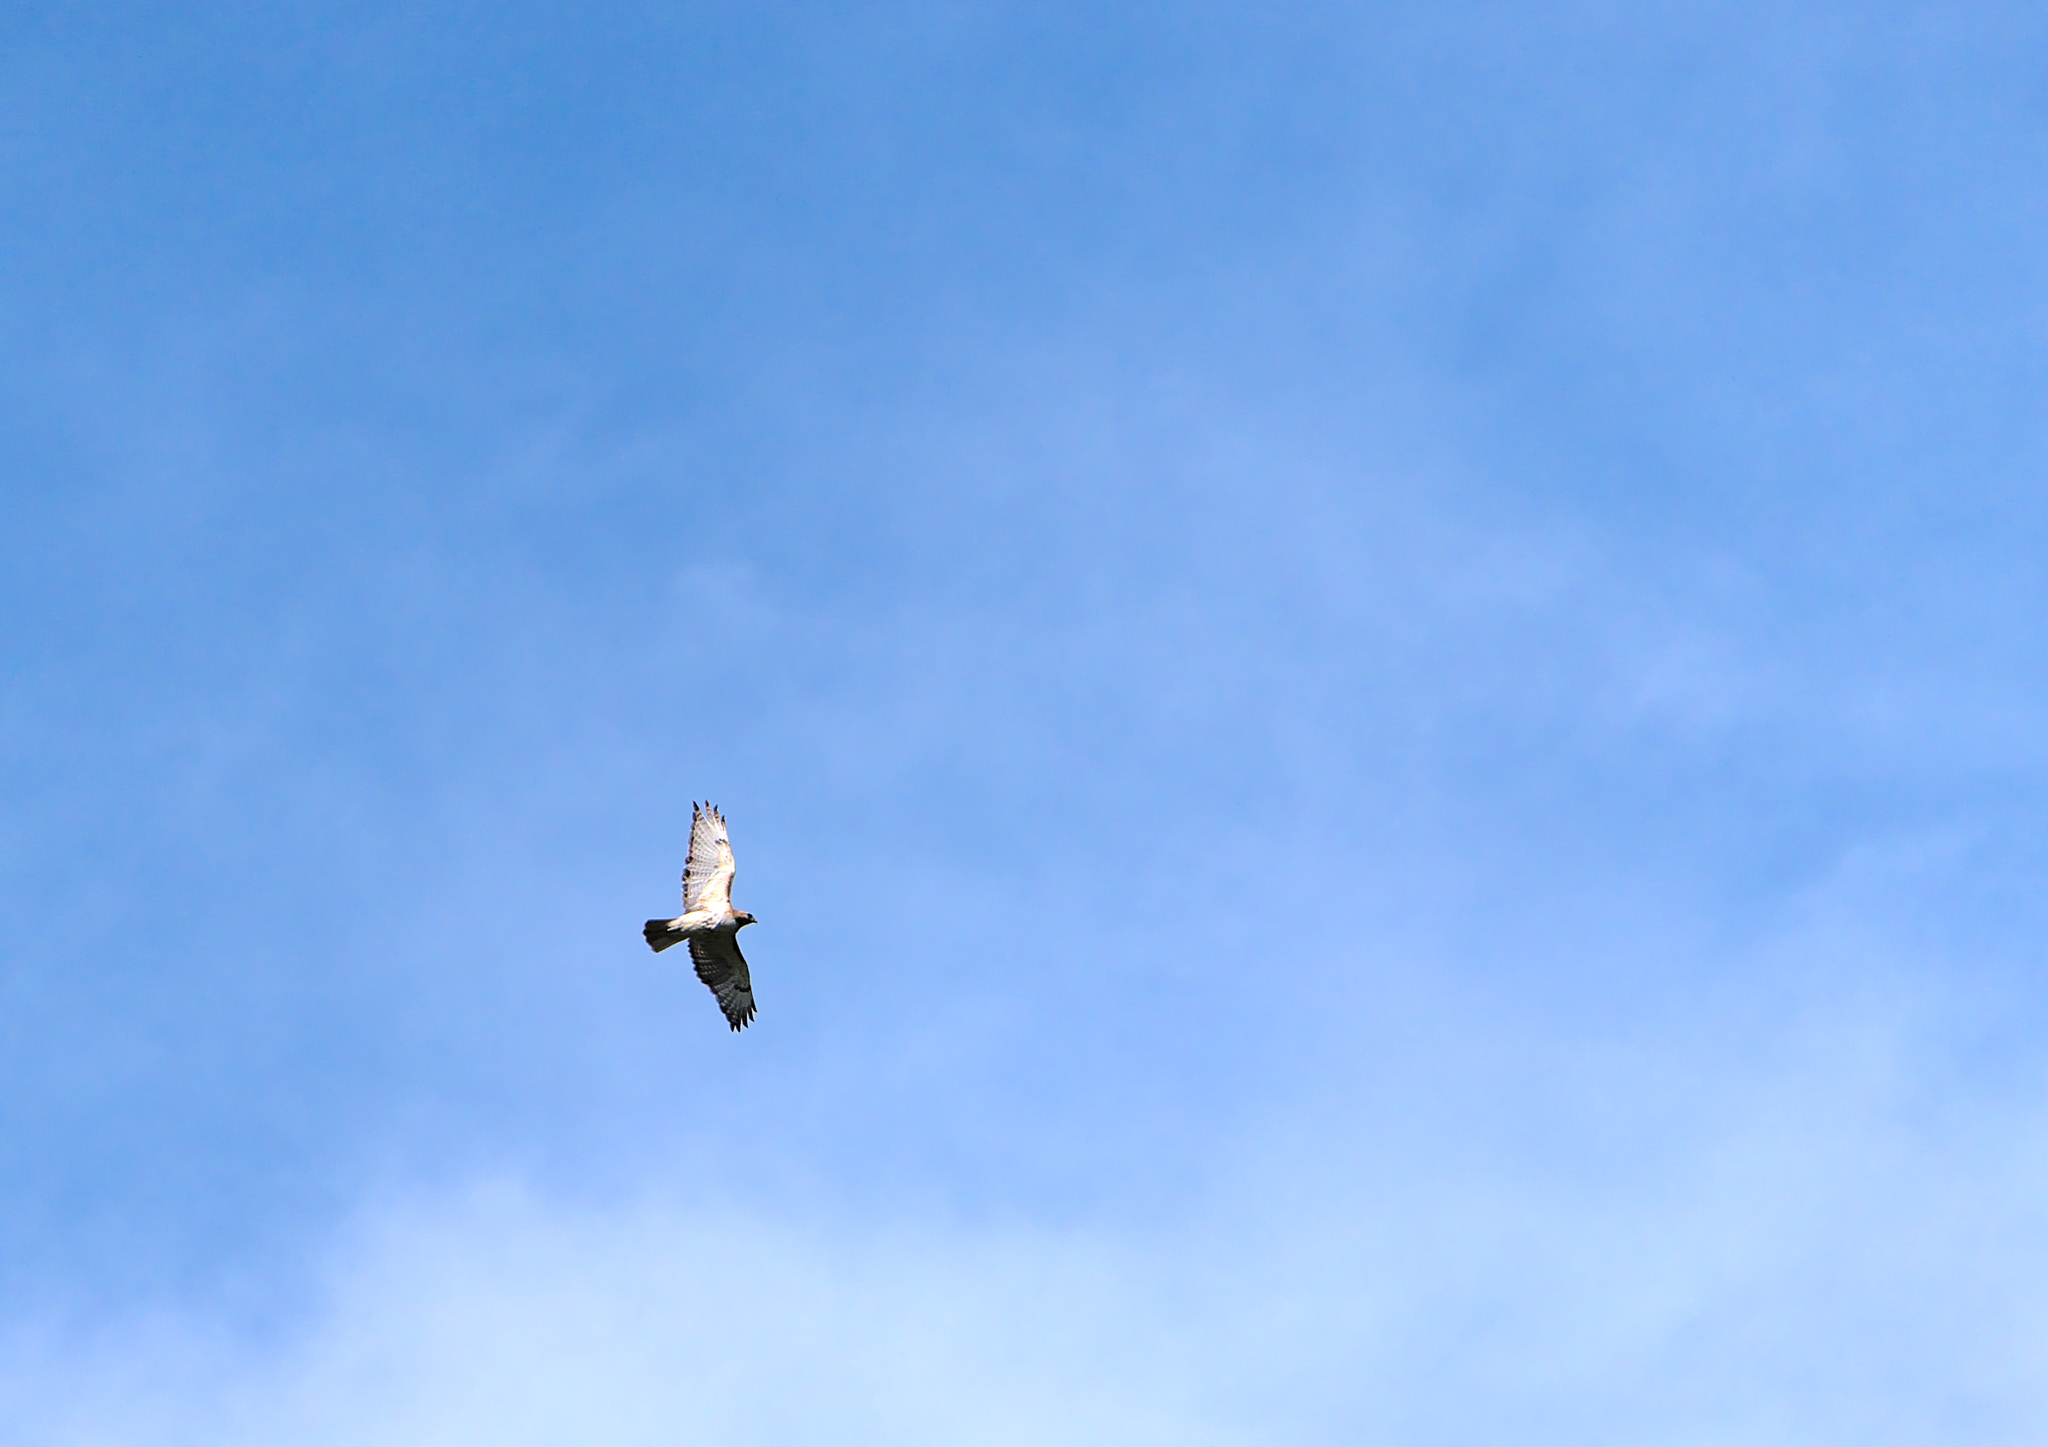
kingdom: Animalia
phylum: Chordata
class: Aves
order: Accipitriformes
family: Accipitridae
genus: Buteo
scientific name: Buteo jamaicensis
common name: Red-tailed hawk
